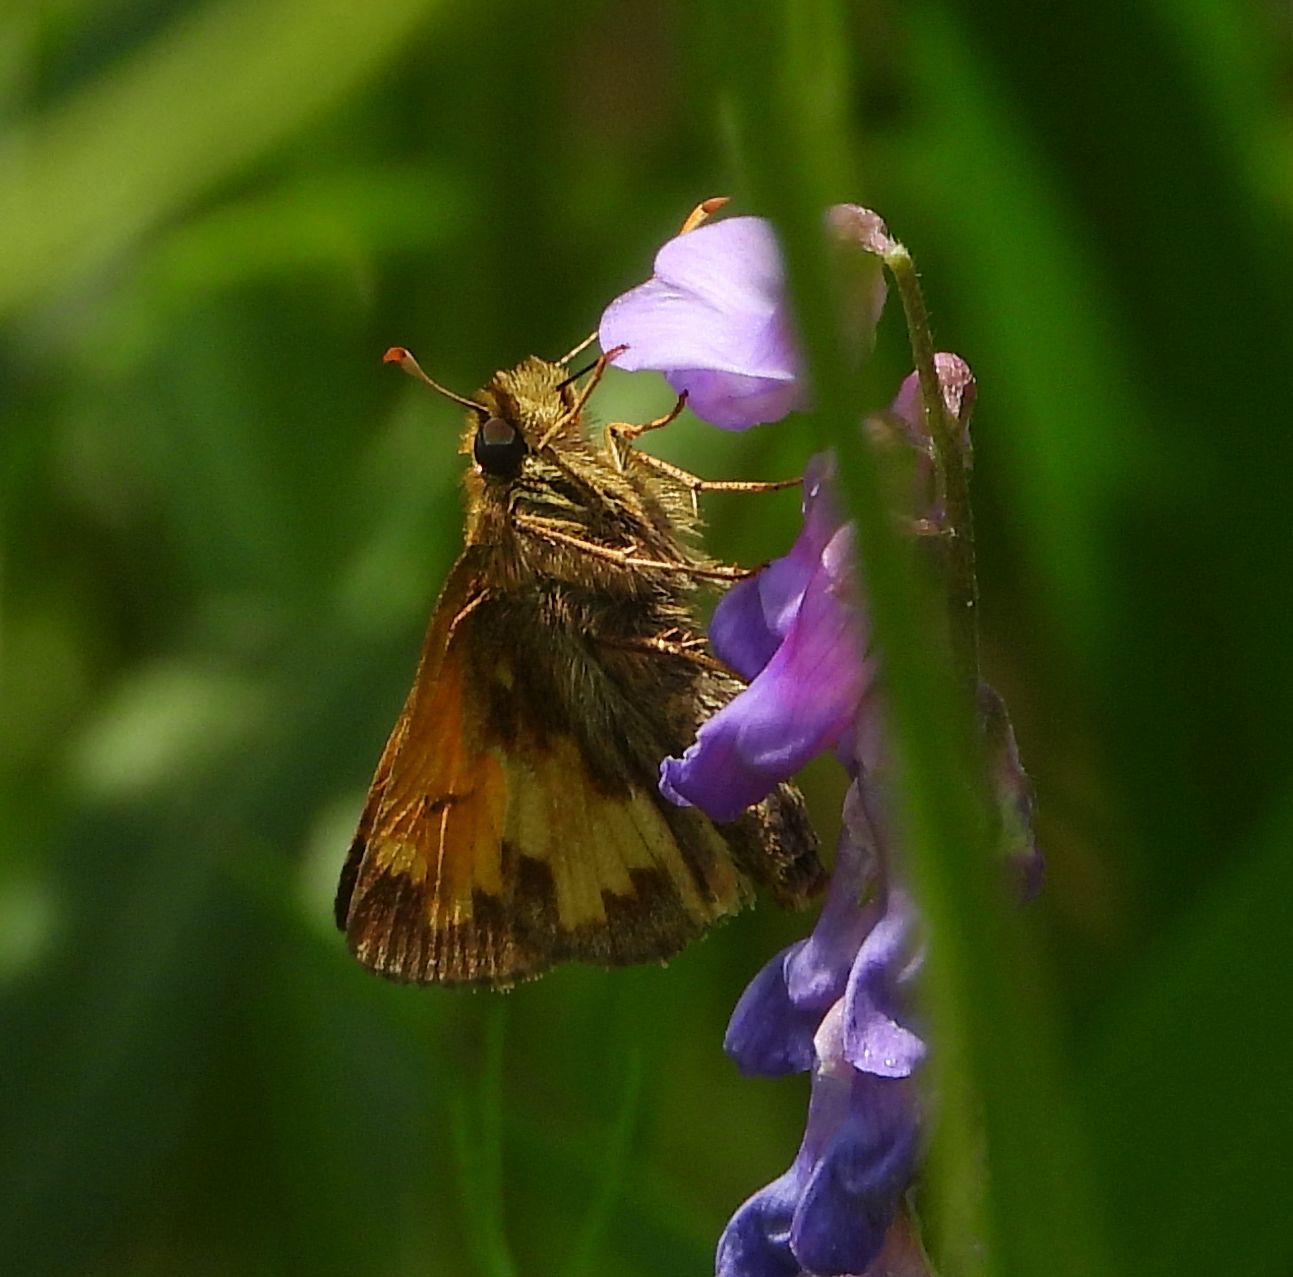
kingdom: Animalia
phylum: Arthropoda
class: Insecta
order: Lepidoptera
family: Hesperiidae
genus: Lon
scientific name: Lon hobomok
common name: Hobomok skipper
